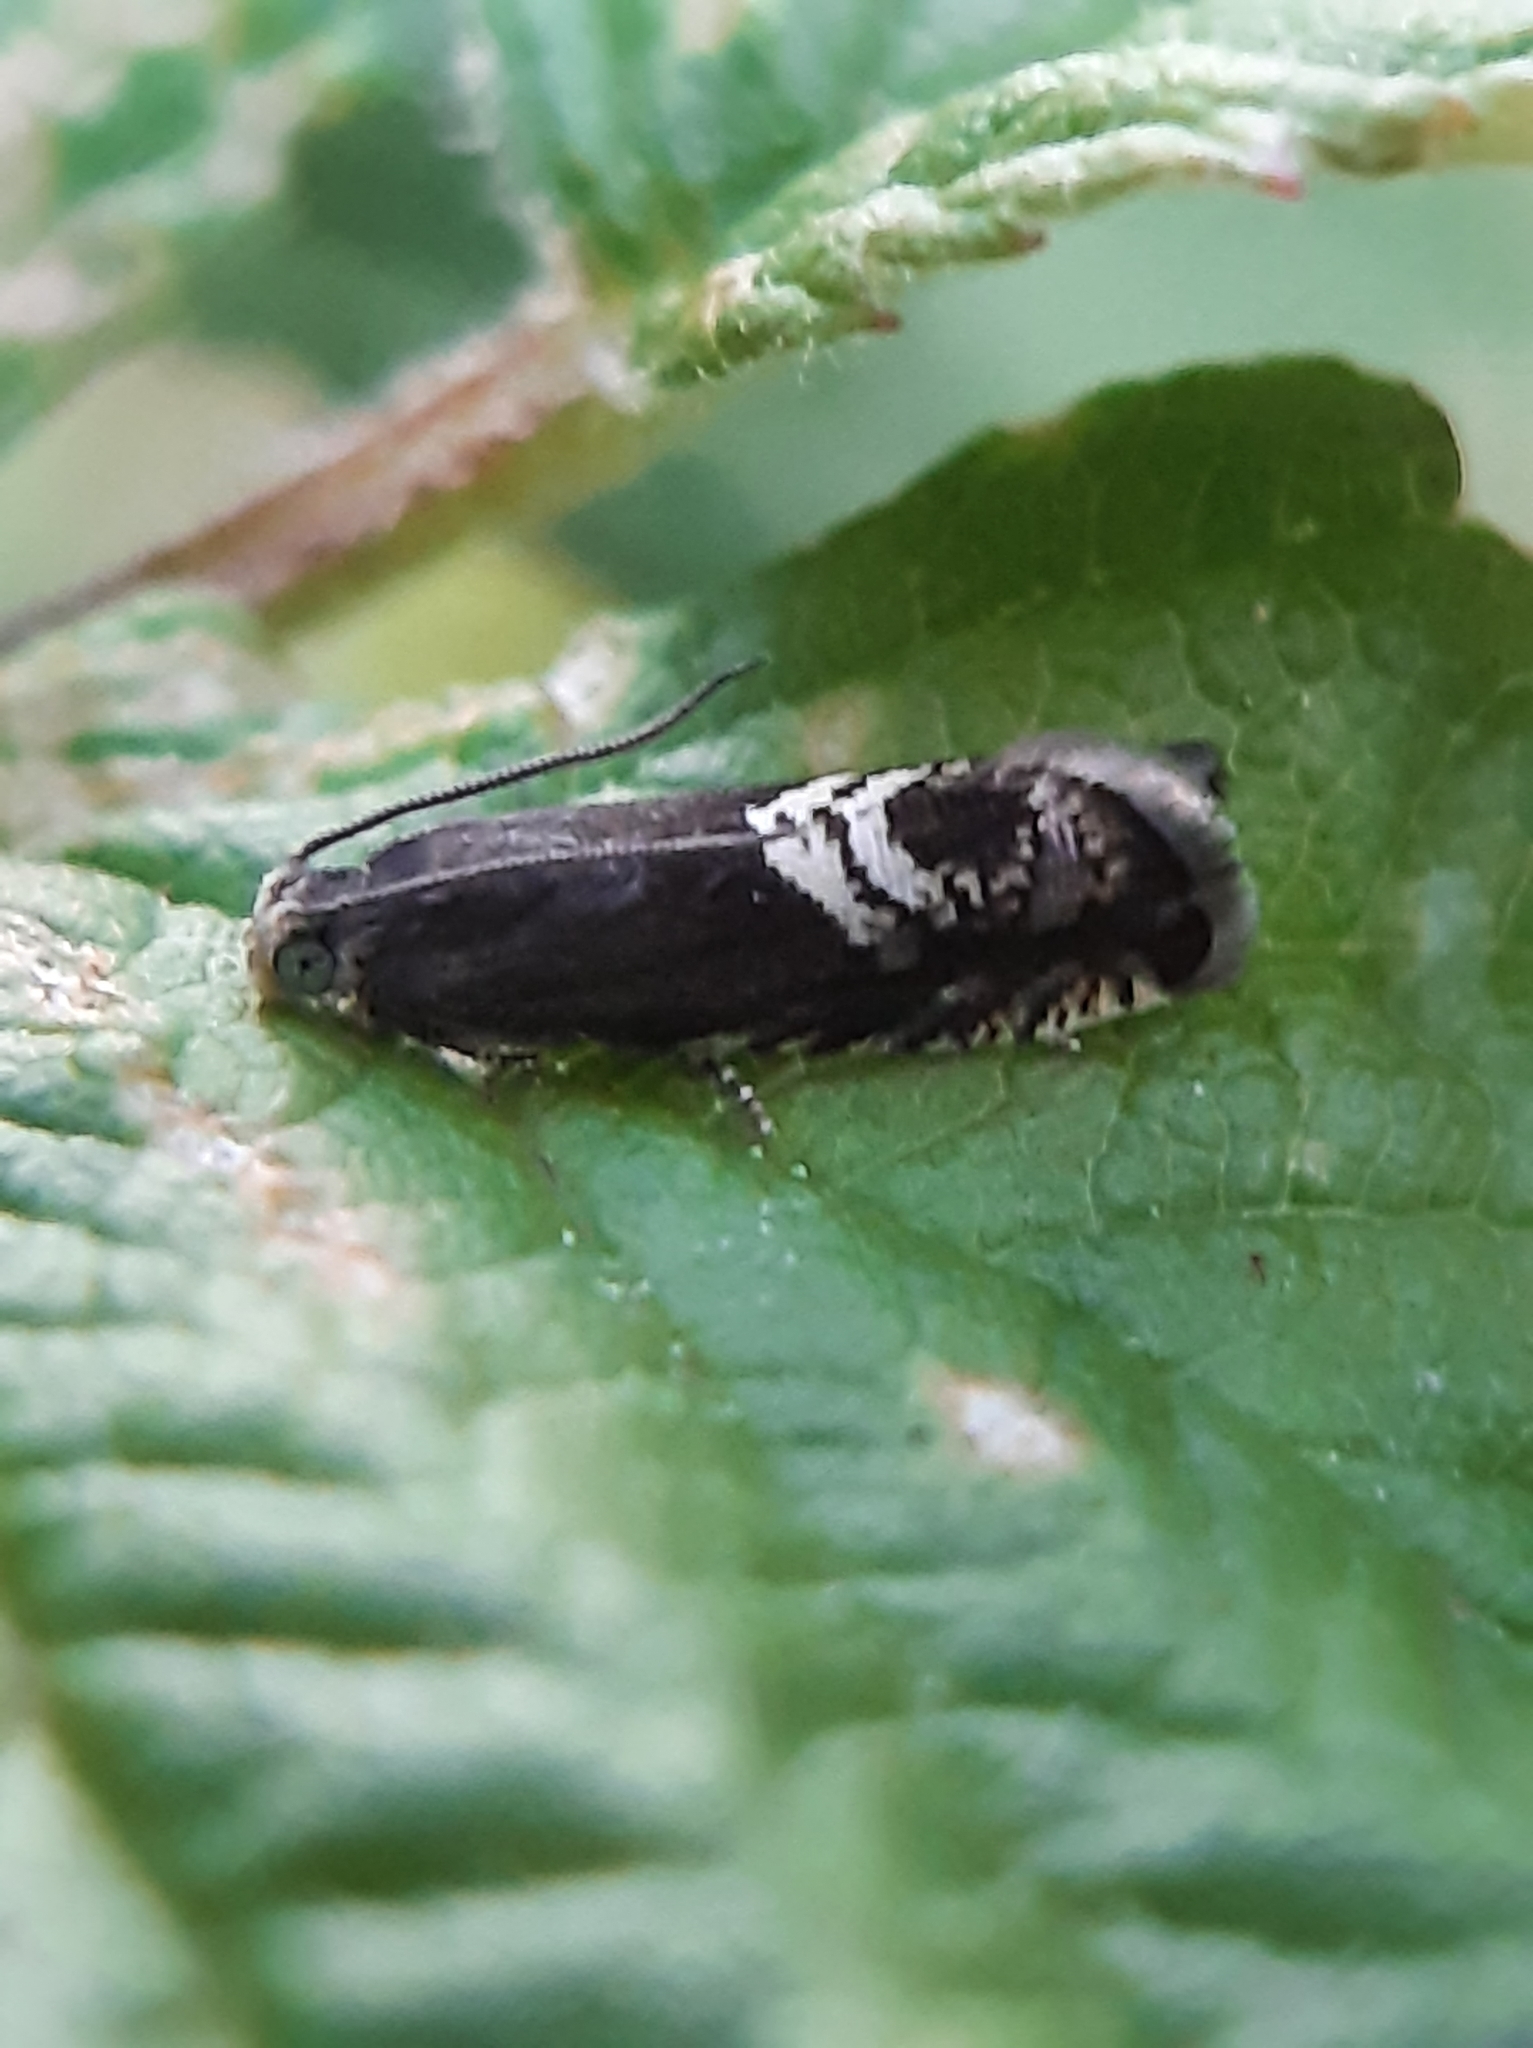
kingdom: Animalia
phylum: Arthropoda
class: Insecta
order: Lepidoptera
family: Tortricidae
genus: Grapholita
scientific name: Grapholita interstinctana
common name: Clover head caterpillar moth
